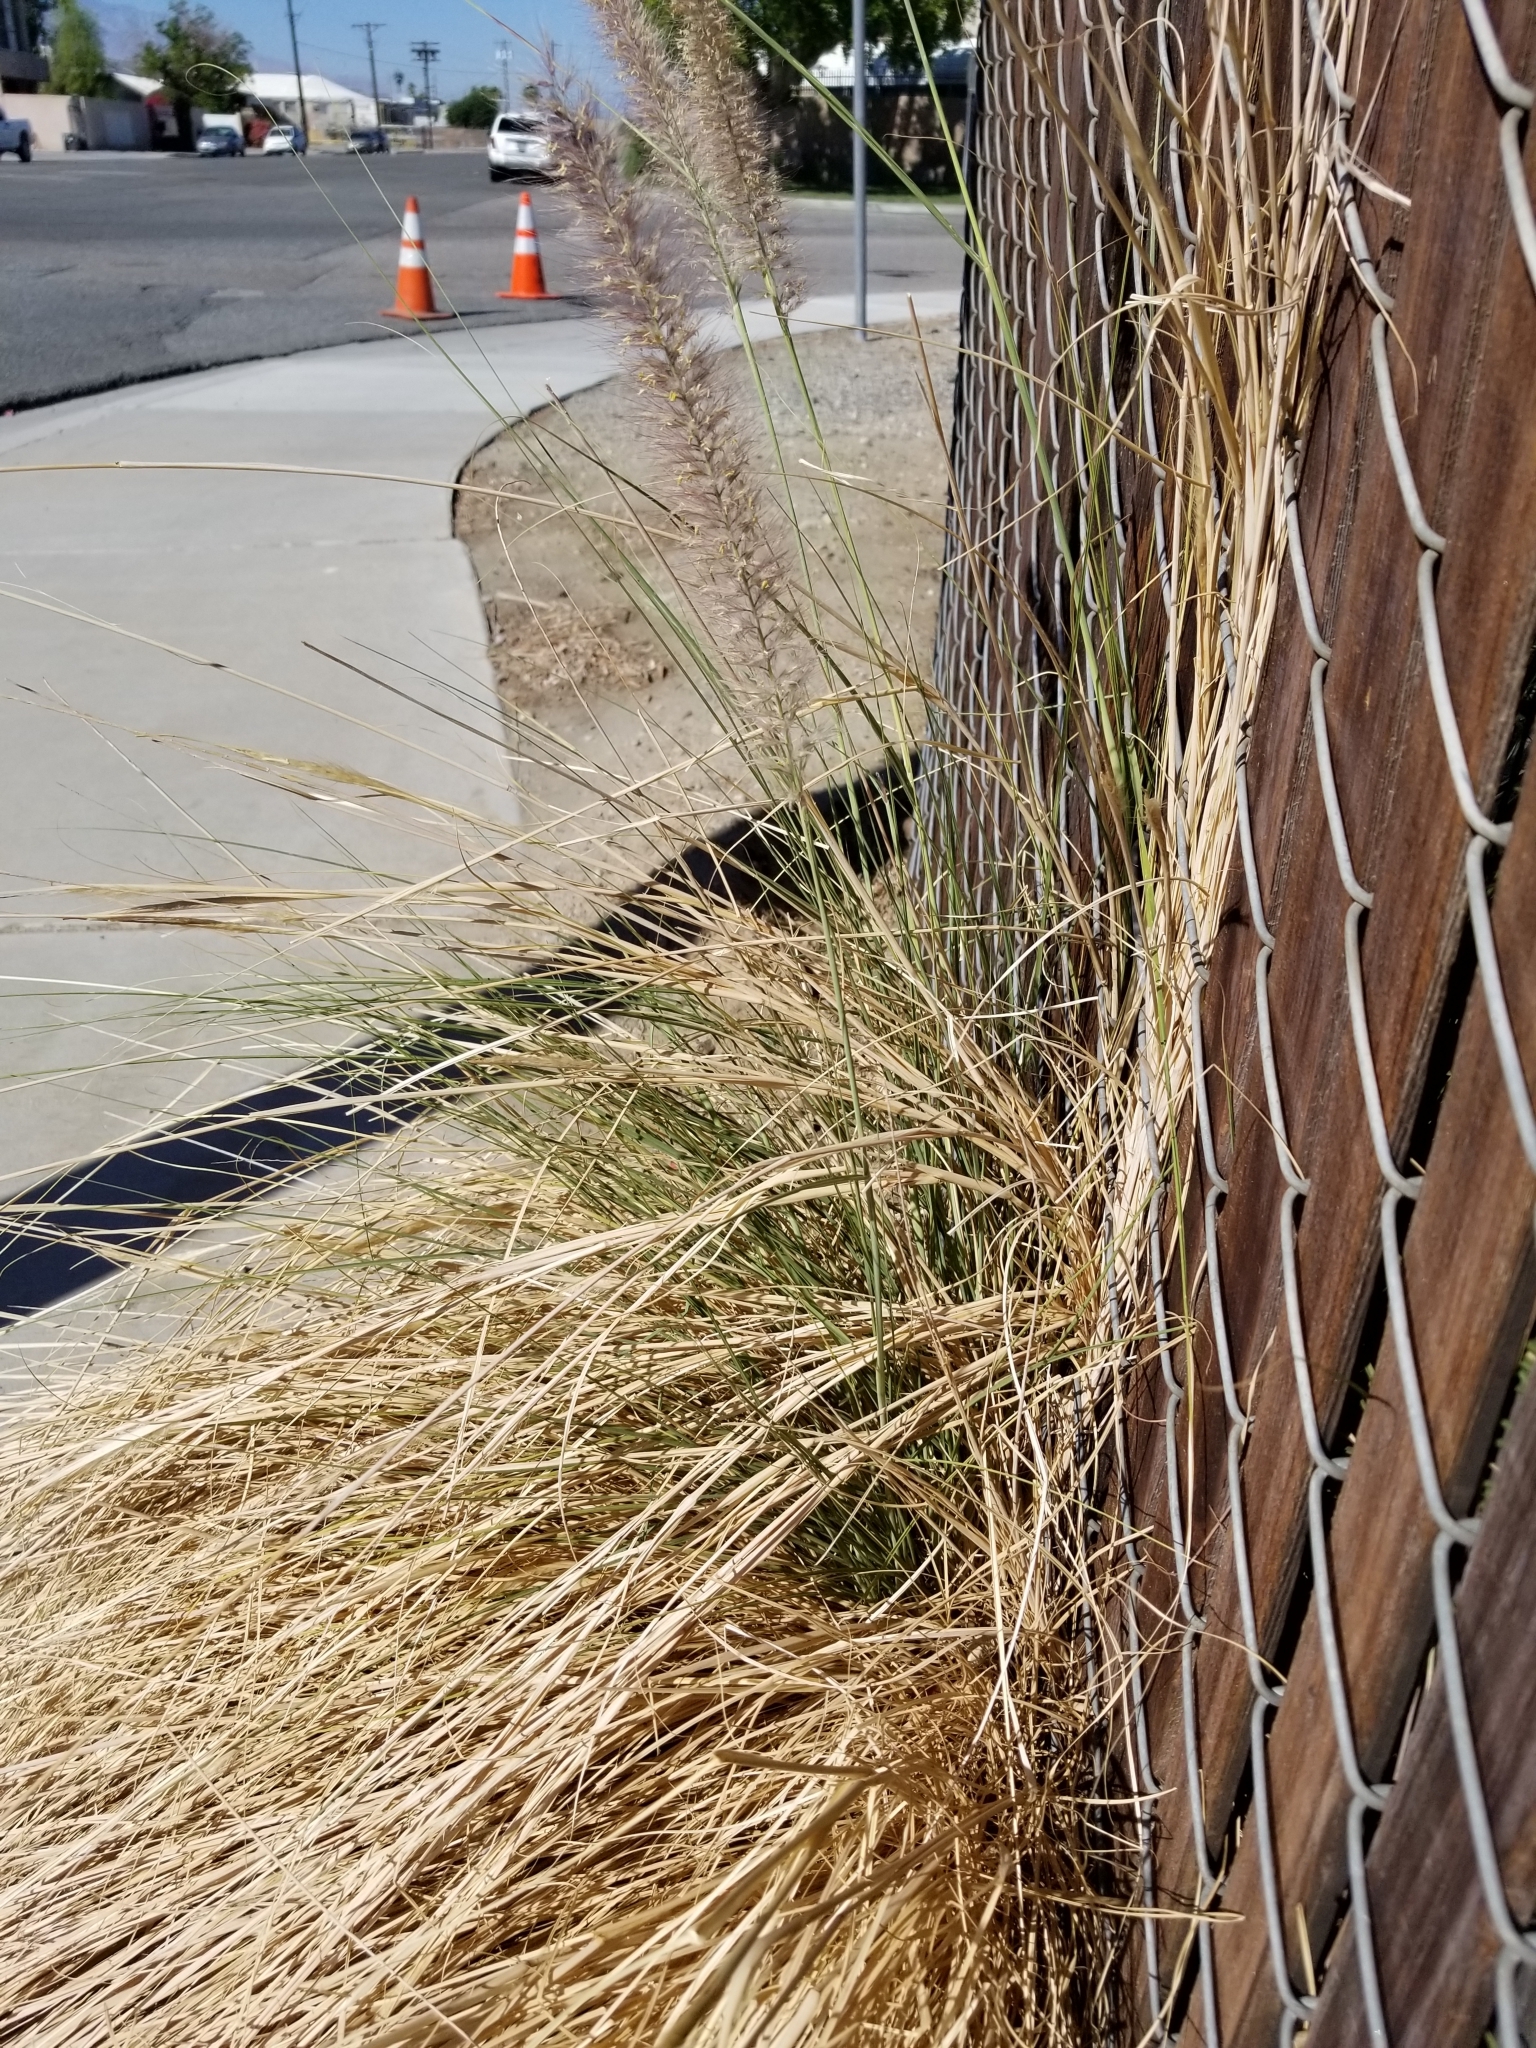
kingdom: Plantae
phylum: Tracheophyta
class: Liliopsida
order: Poales
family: Poaceae
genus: Cenchrus
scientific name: Cenchrus setaceus
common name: Crimson fountaingrass
